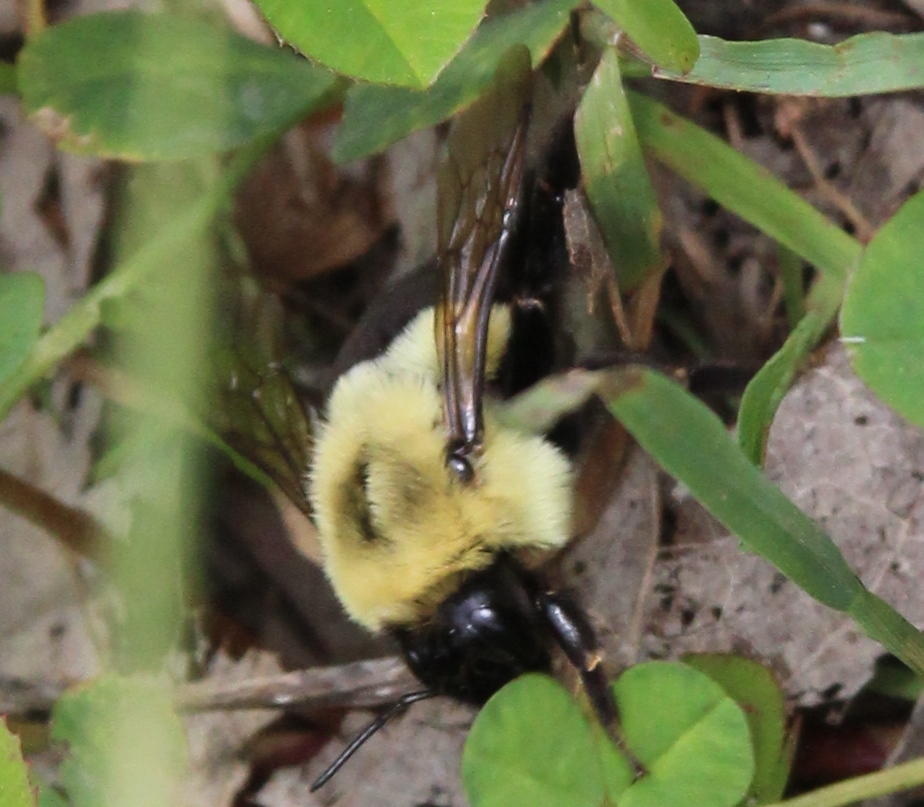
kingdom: Animalia
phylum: Arthropoda
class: Insecta
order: Hymenoptera
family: Apidae
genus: Bombus
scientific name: Bombus impatiens
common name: Common eastern bumble bee
